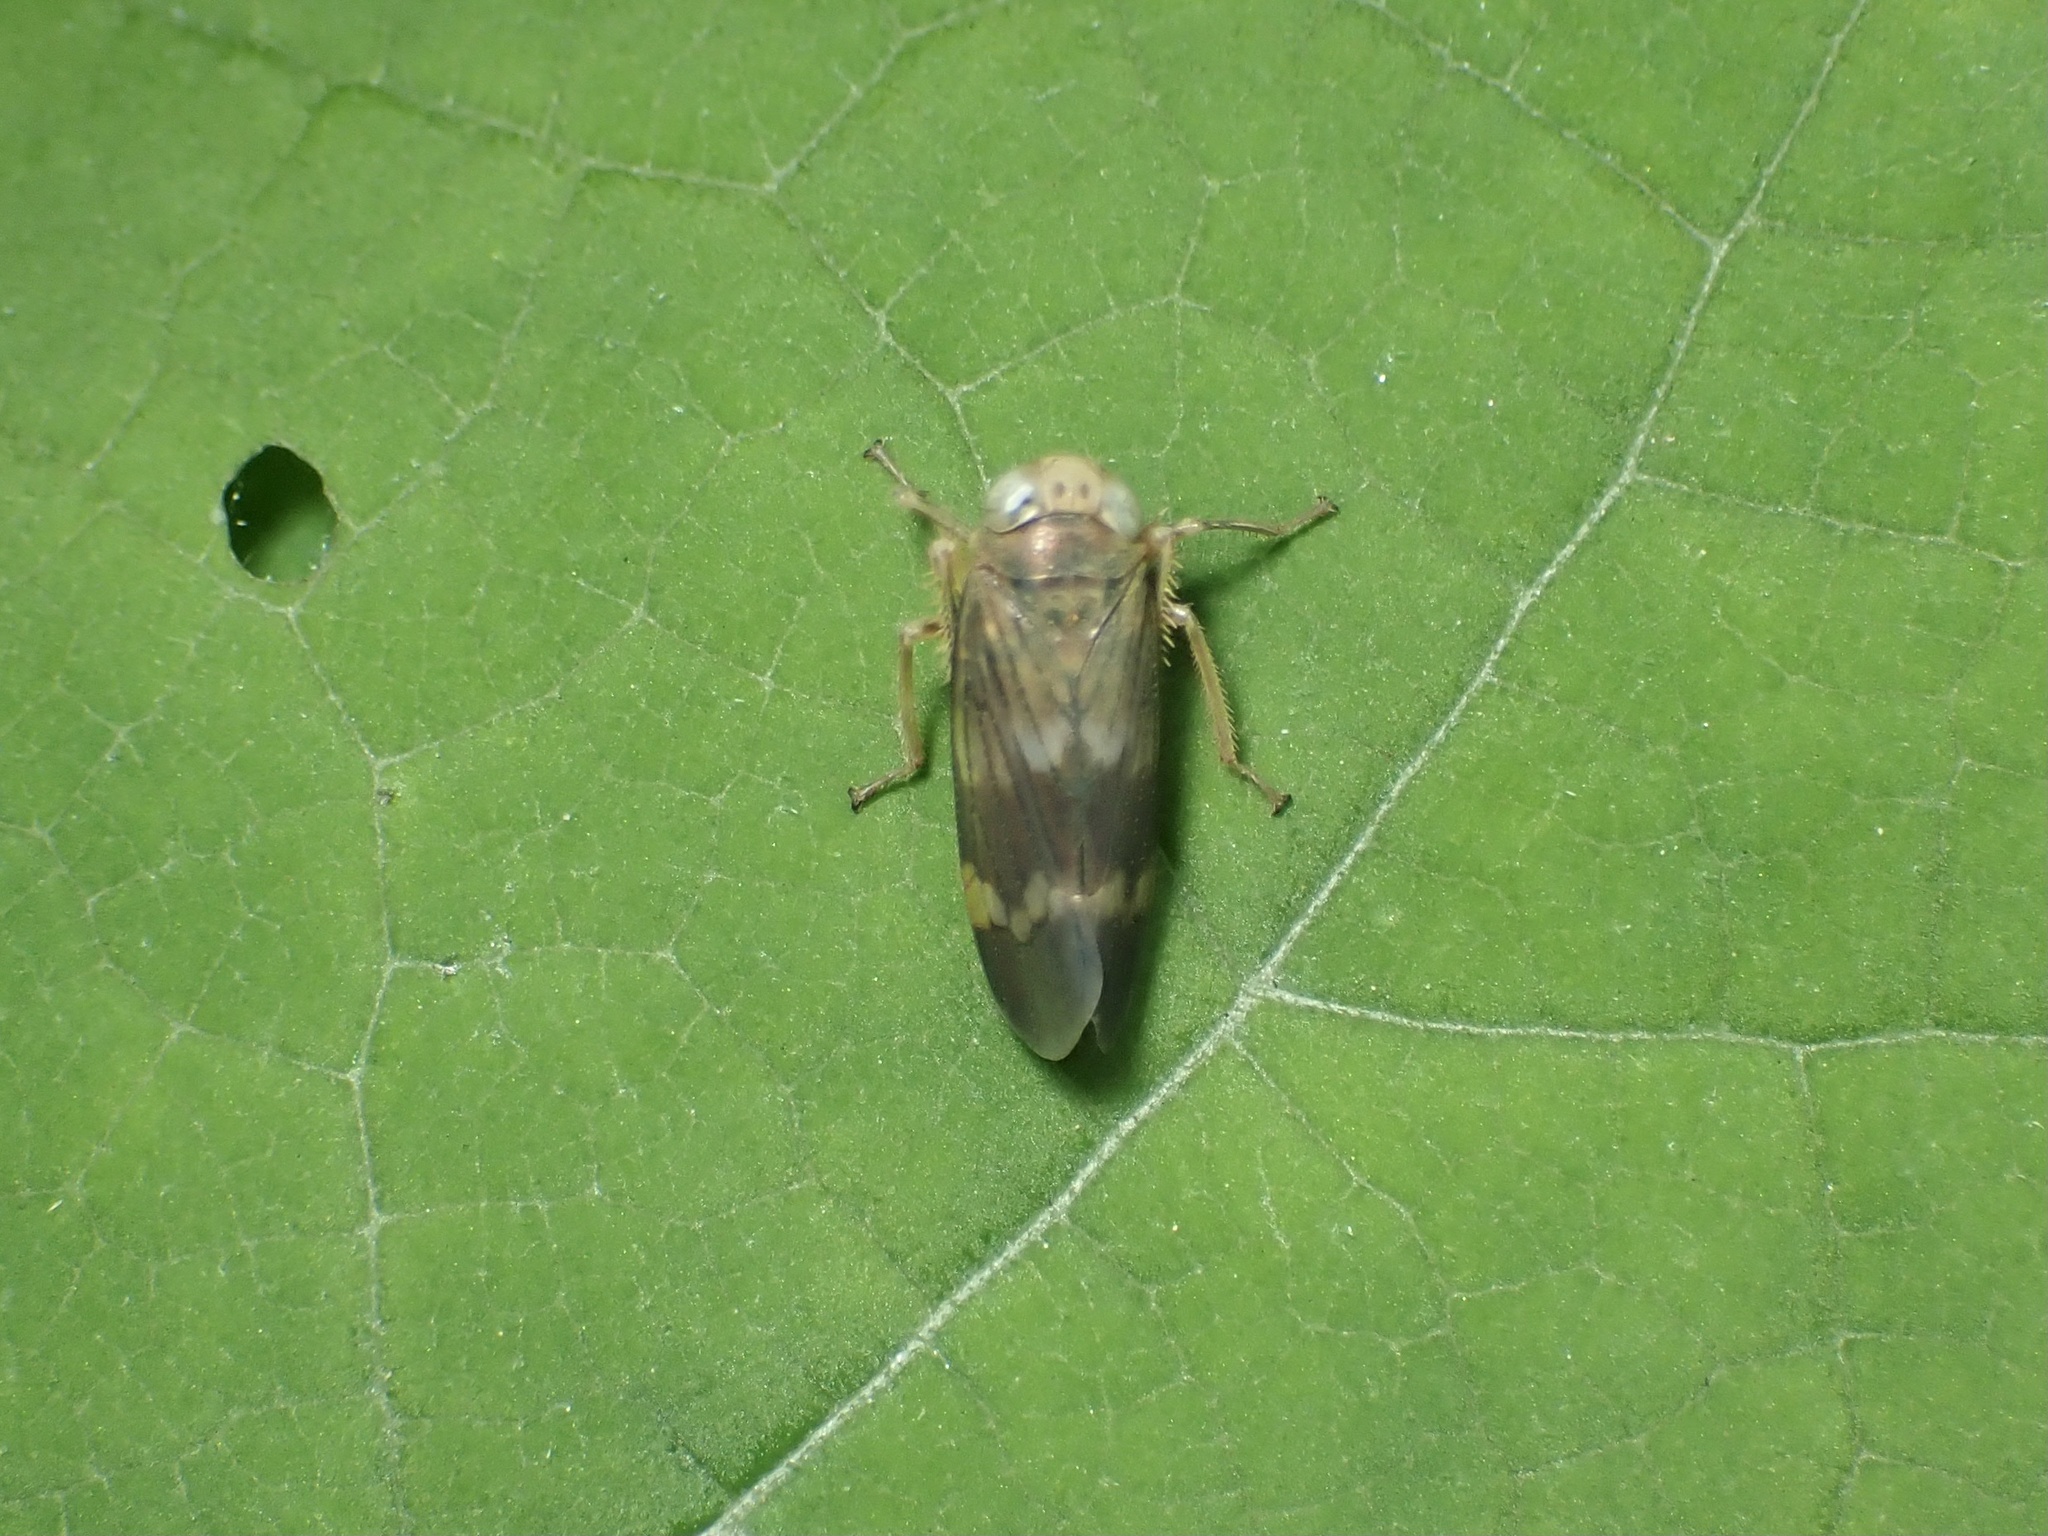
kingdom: Animalia
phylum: Arthropoda
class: Insecta
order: Hemiptera
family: Cicadellidae
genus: Jikradia
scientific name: Jikradia olitoria
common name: Coppery leafhopper
